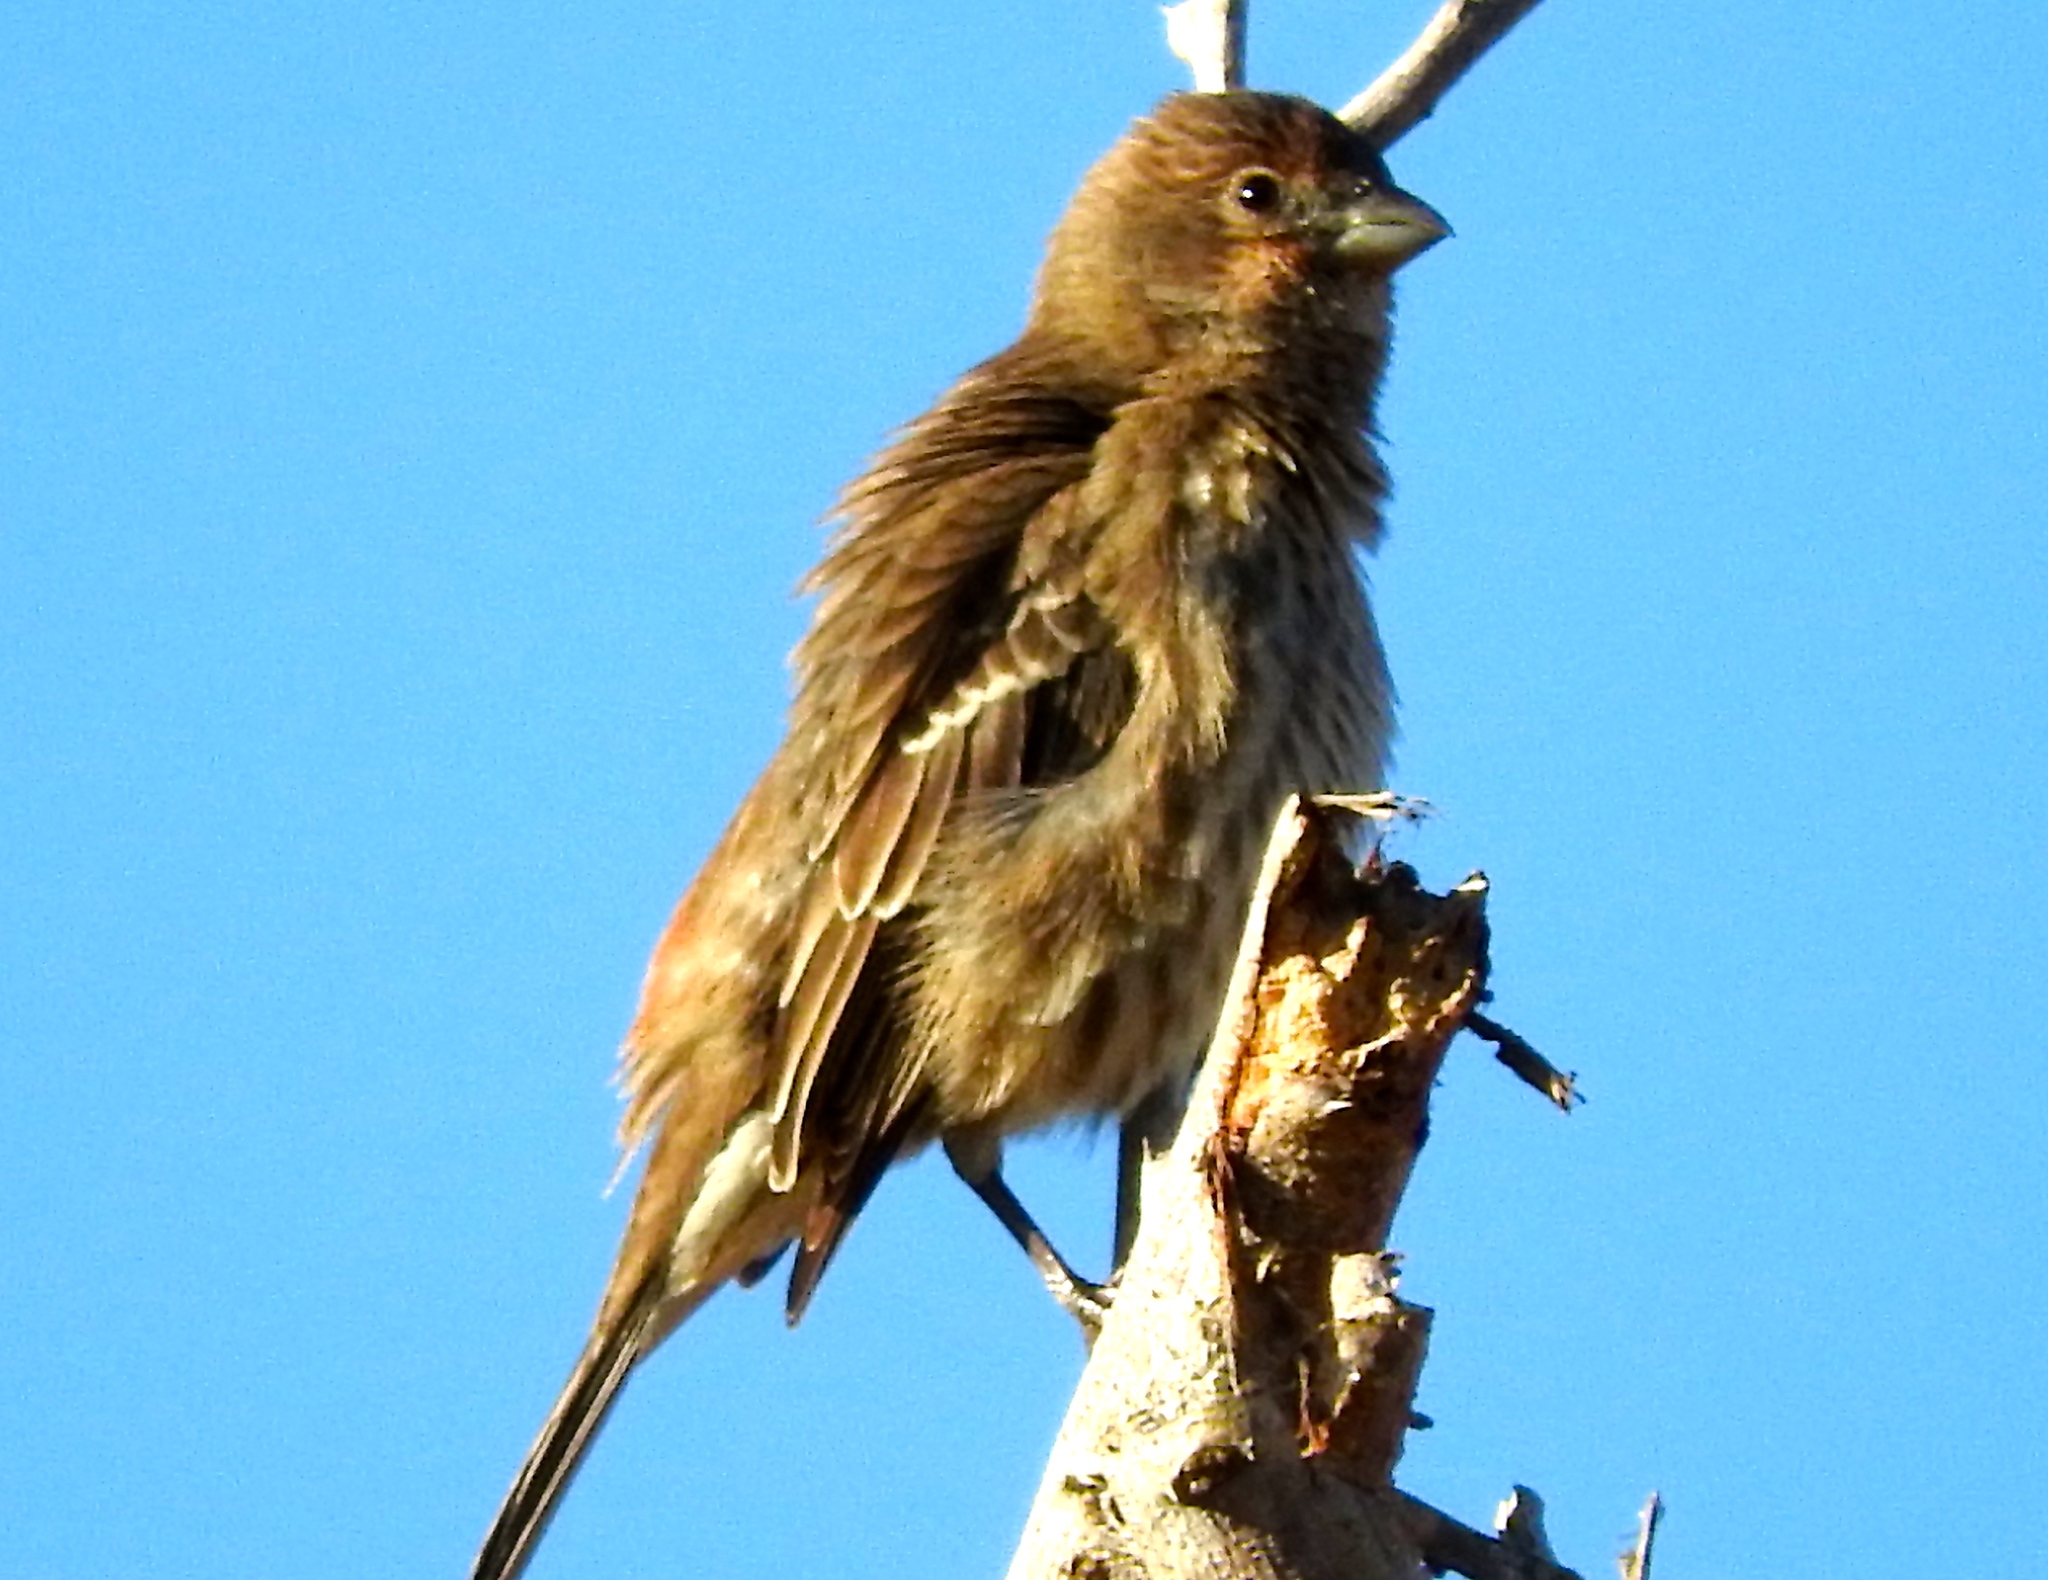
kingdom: Animalia
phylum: Chordata
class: Aves
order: Passeriformes
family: Fringillidae
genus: Haemorhous
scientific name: Haemorhous mexicanus
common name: House finch
